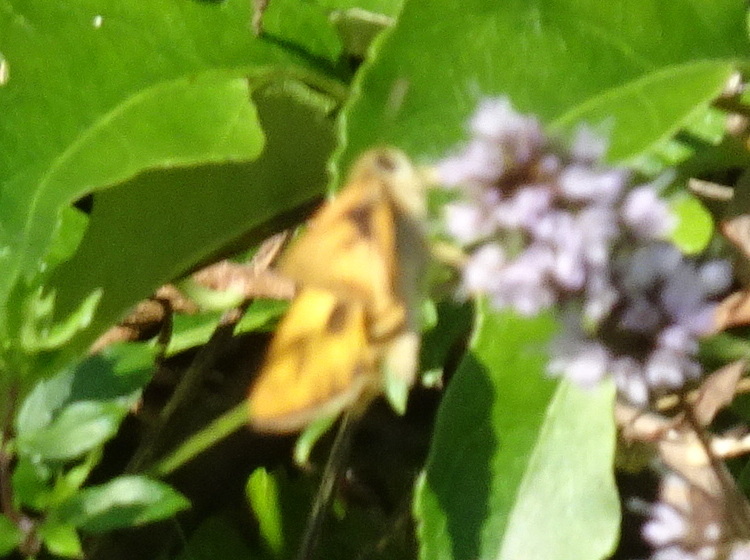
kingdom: Animalia
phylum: Arthropoda
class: Insecta
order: Lepidoptera
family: Hesperiidae
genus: Hylephila
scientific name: Hylephila phyleus
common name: Fiery skipper
